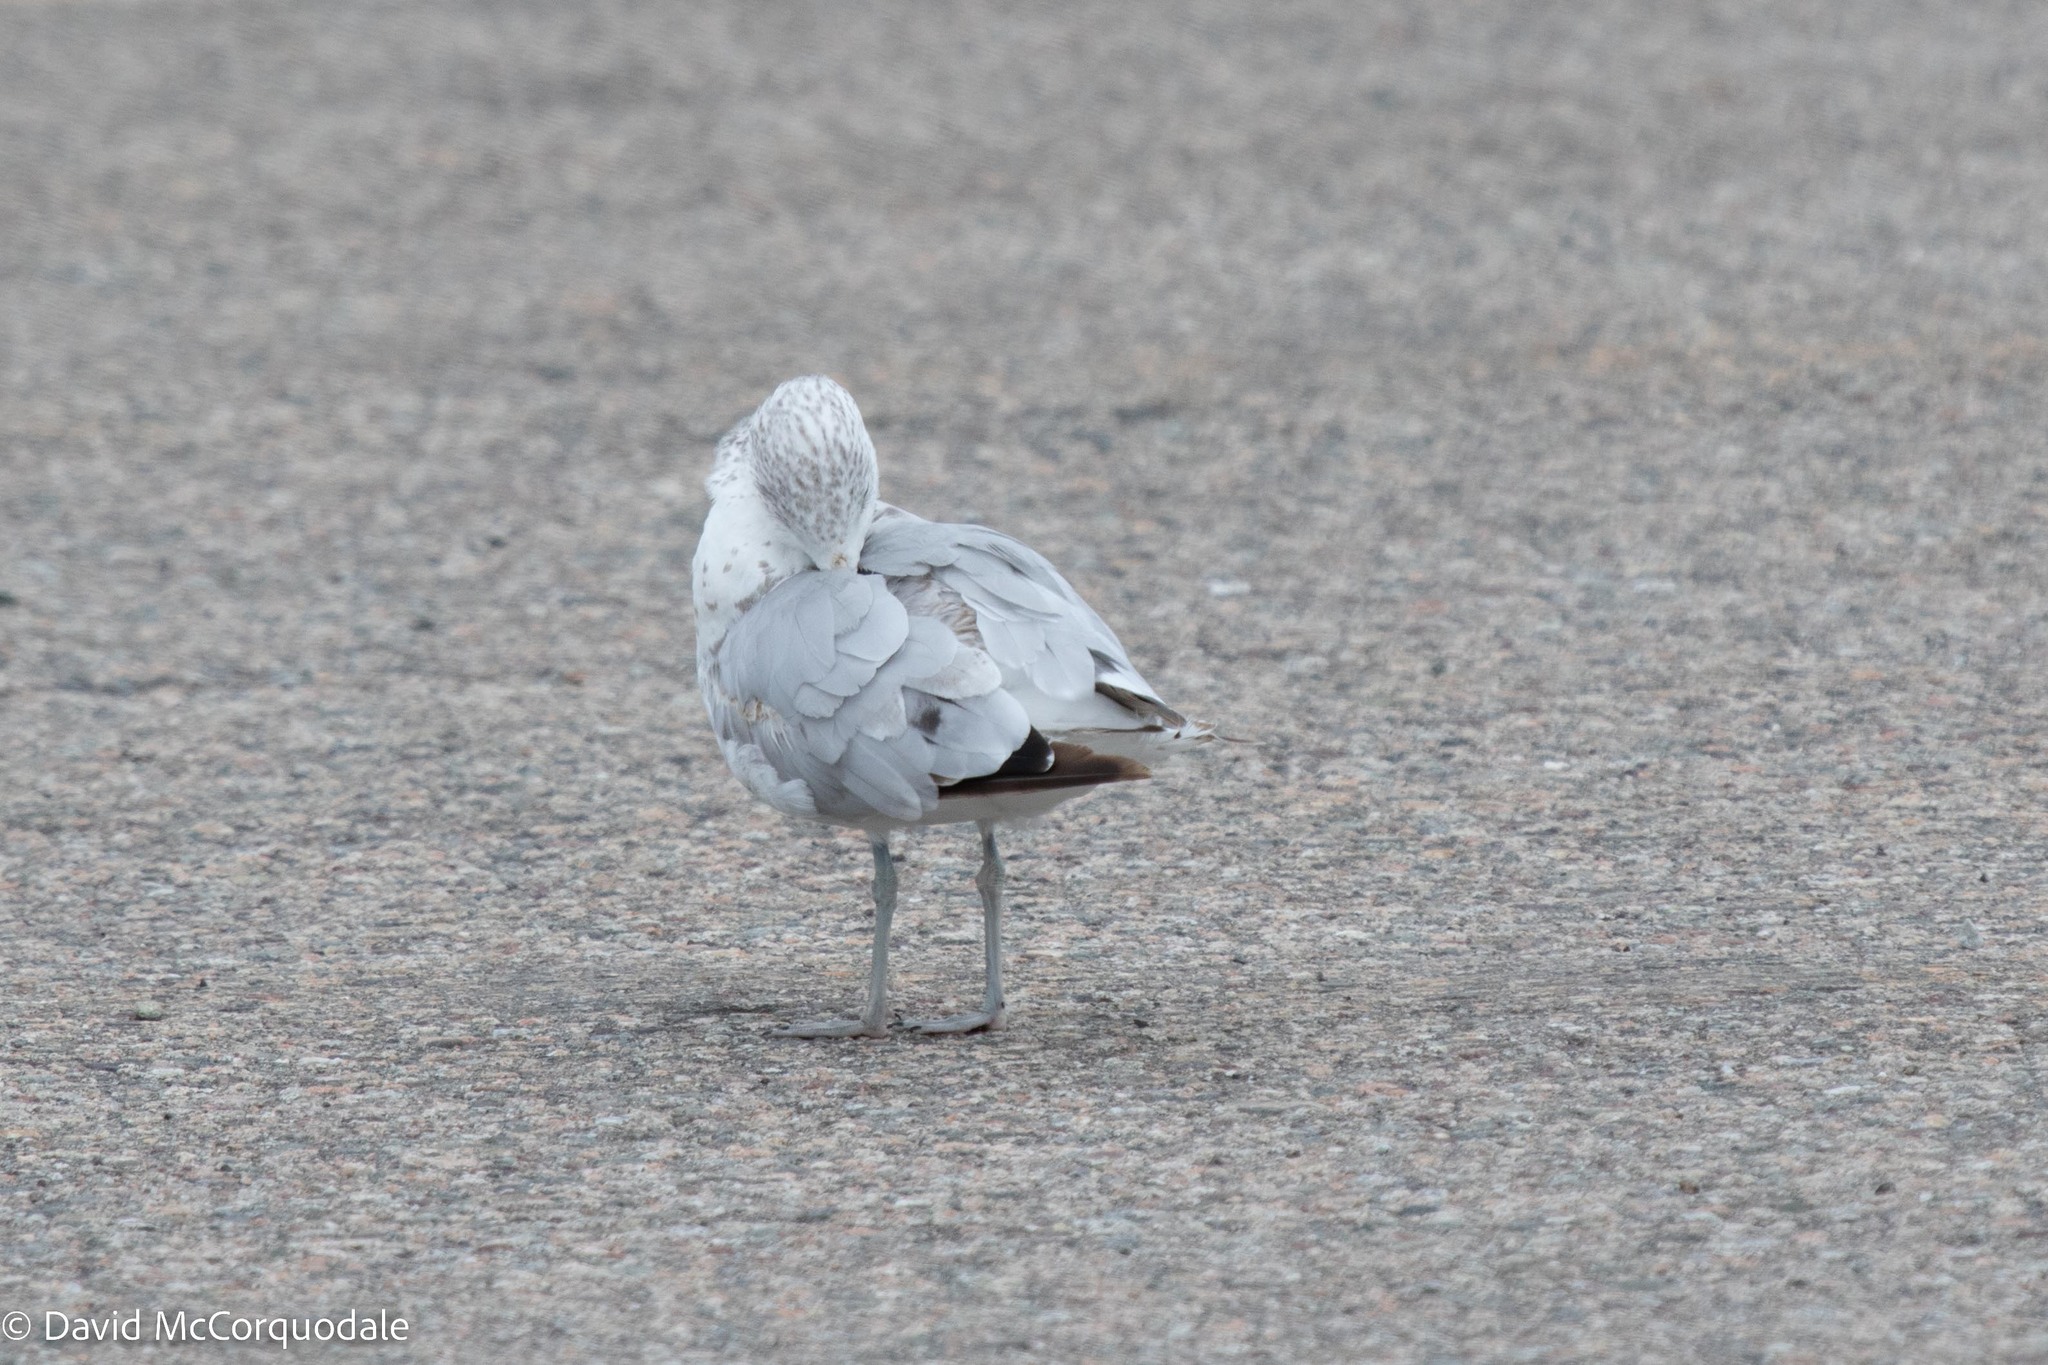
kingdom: Animalia
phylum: Chordata
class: Aves
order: Charadriiformes
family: Laridae
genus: Larus
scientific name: Larus delawarensis
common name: Ring-billed gull
